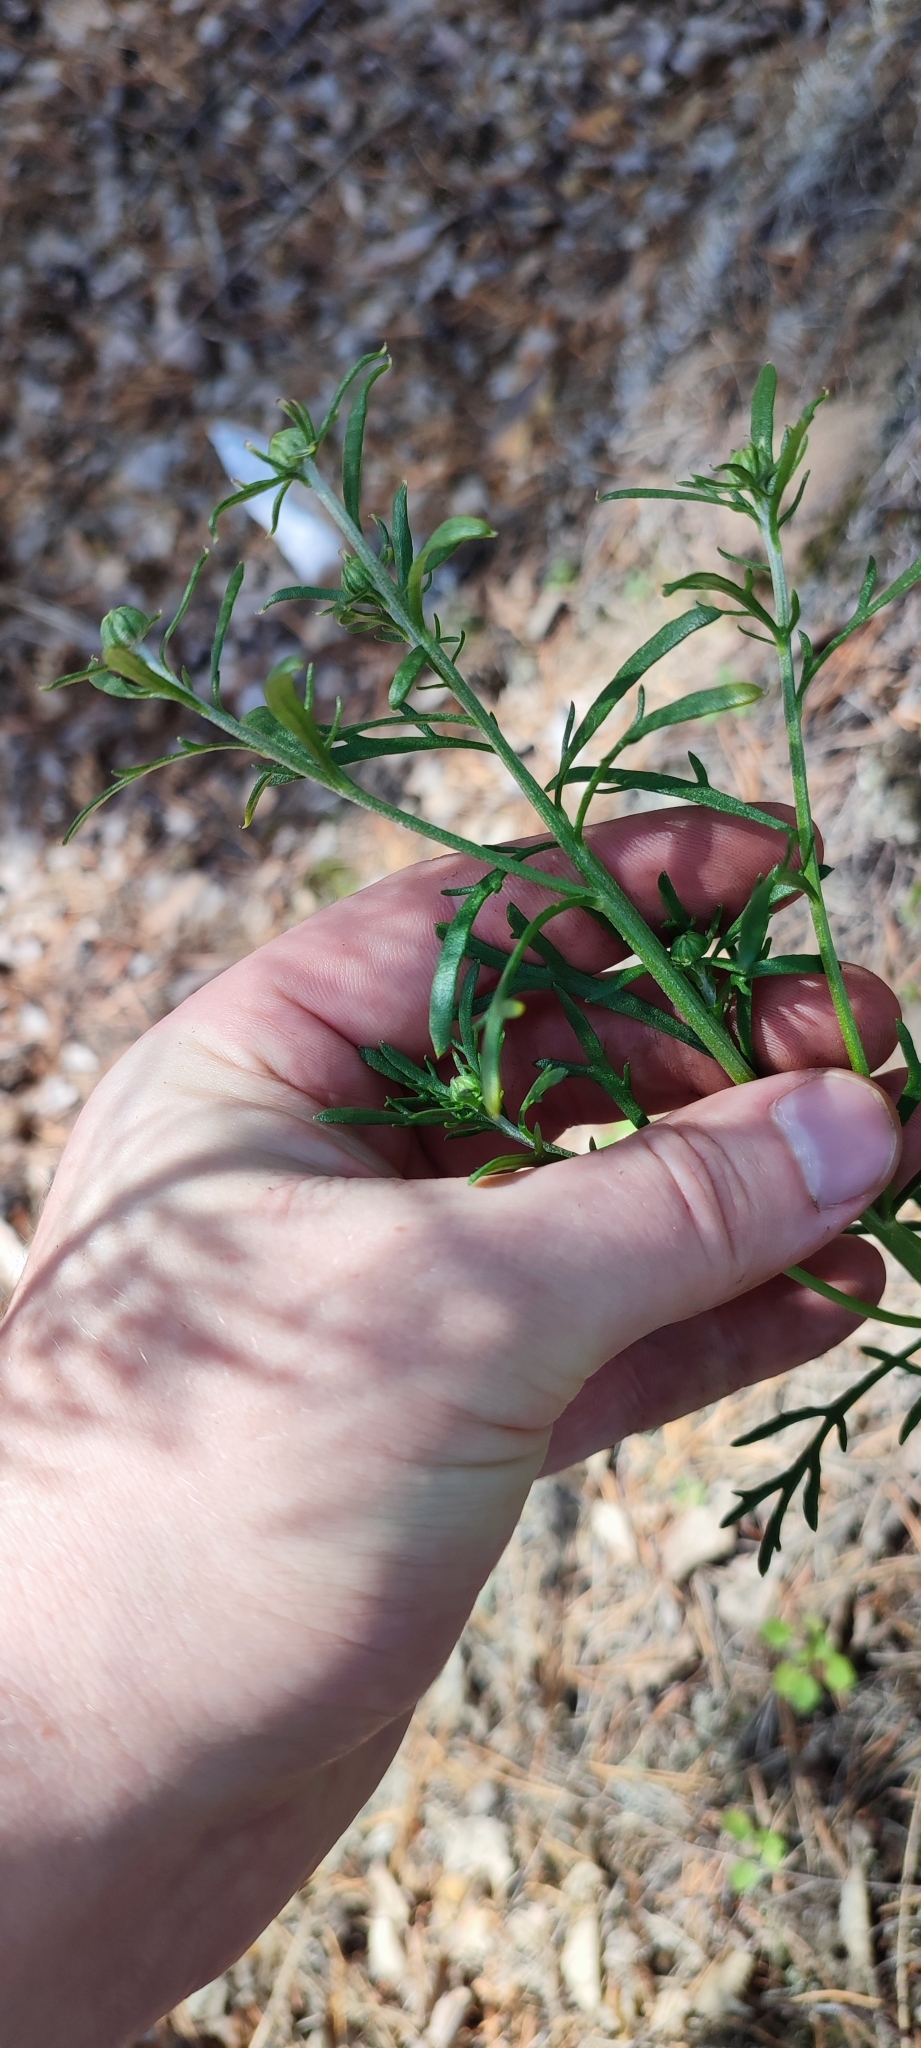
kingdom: Plantae
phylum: Tracheophyta
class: Magnoliopsida
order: Asterales
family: Asteraceae
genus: Chrysanthemum
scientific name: Chrysanthemum zawadzkii
